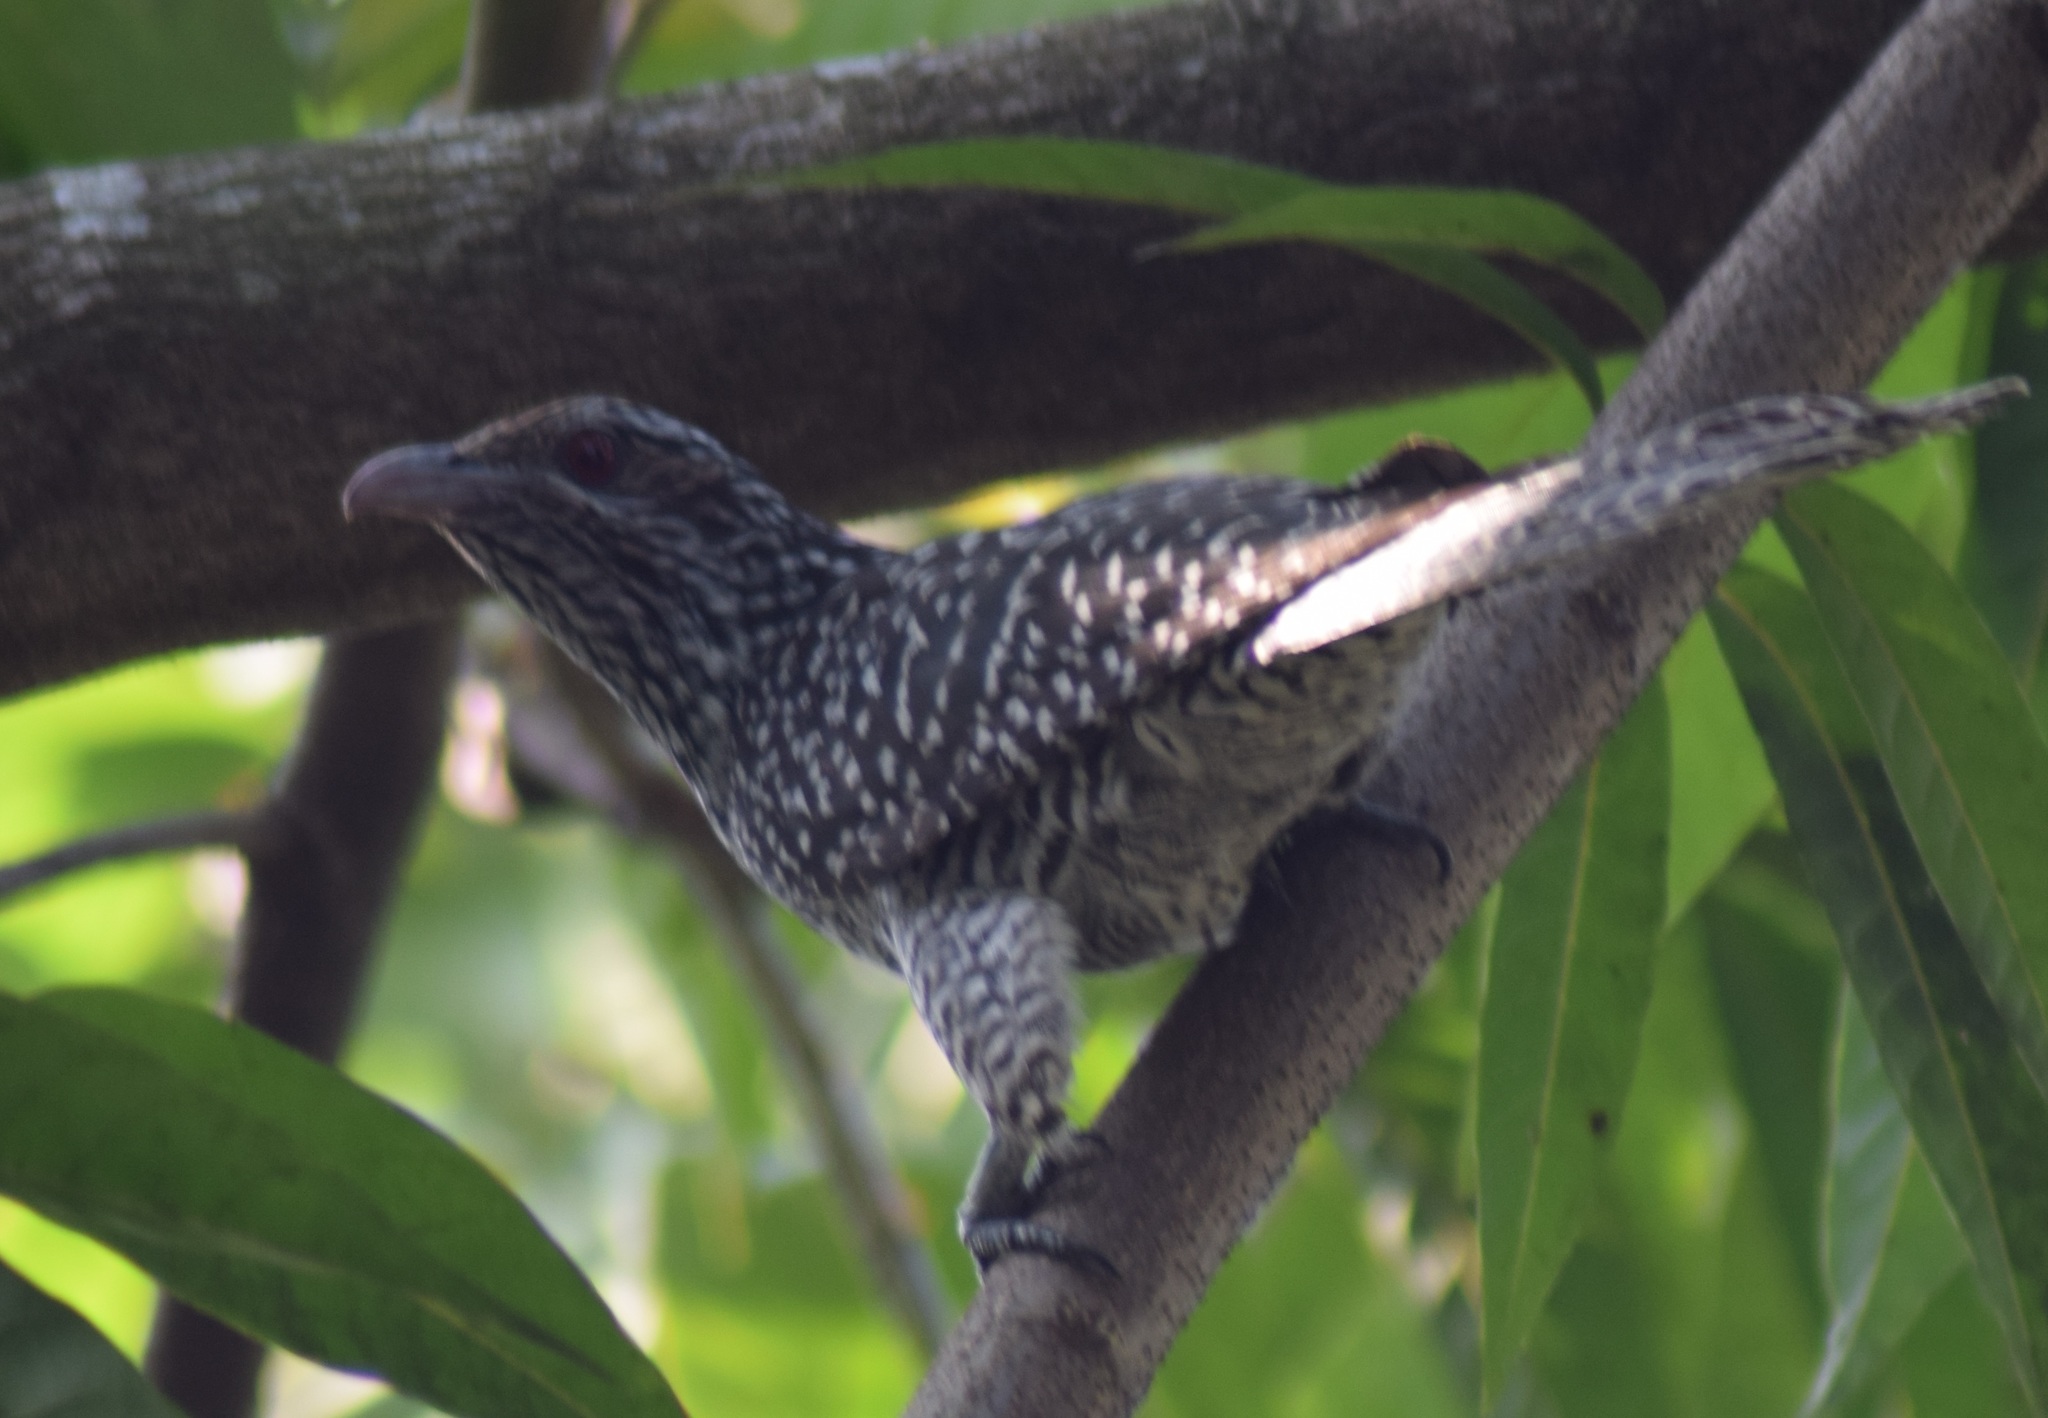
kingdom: Animalia
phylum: Chordata
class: Aves
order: Cuculiformes
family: Cuculidae
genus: Eudynamys
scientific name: Eudynamys scolopaceus
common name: Asian koel
